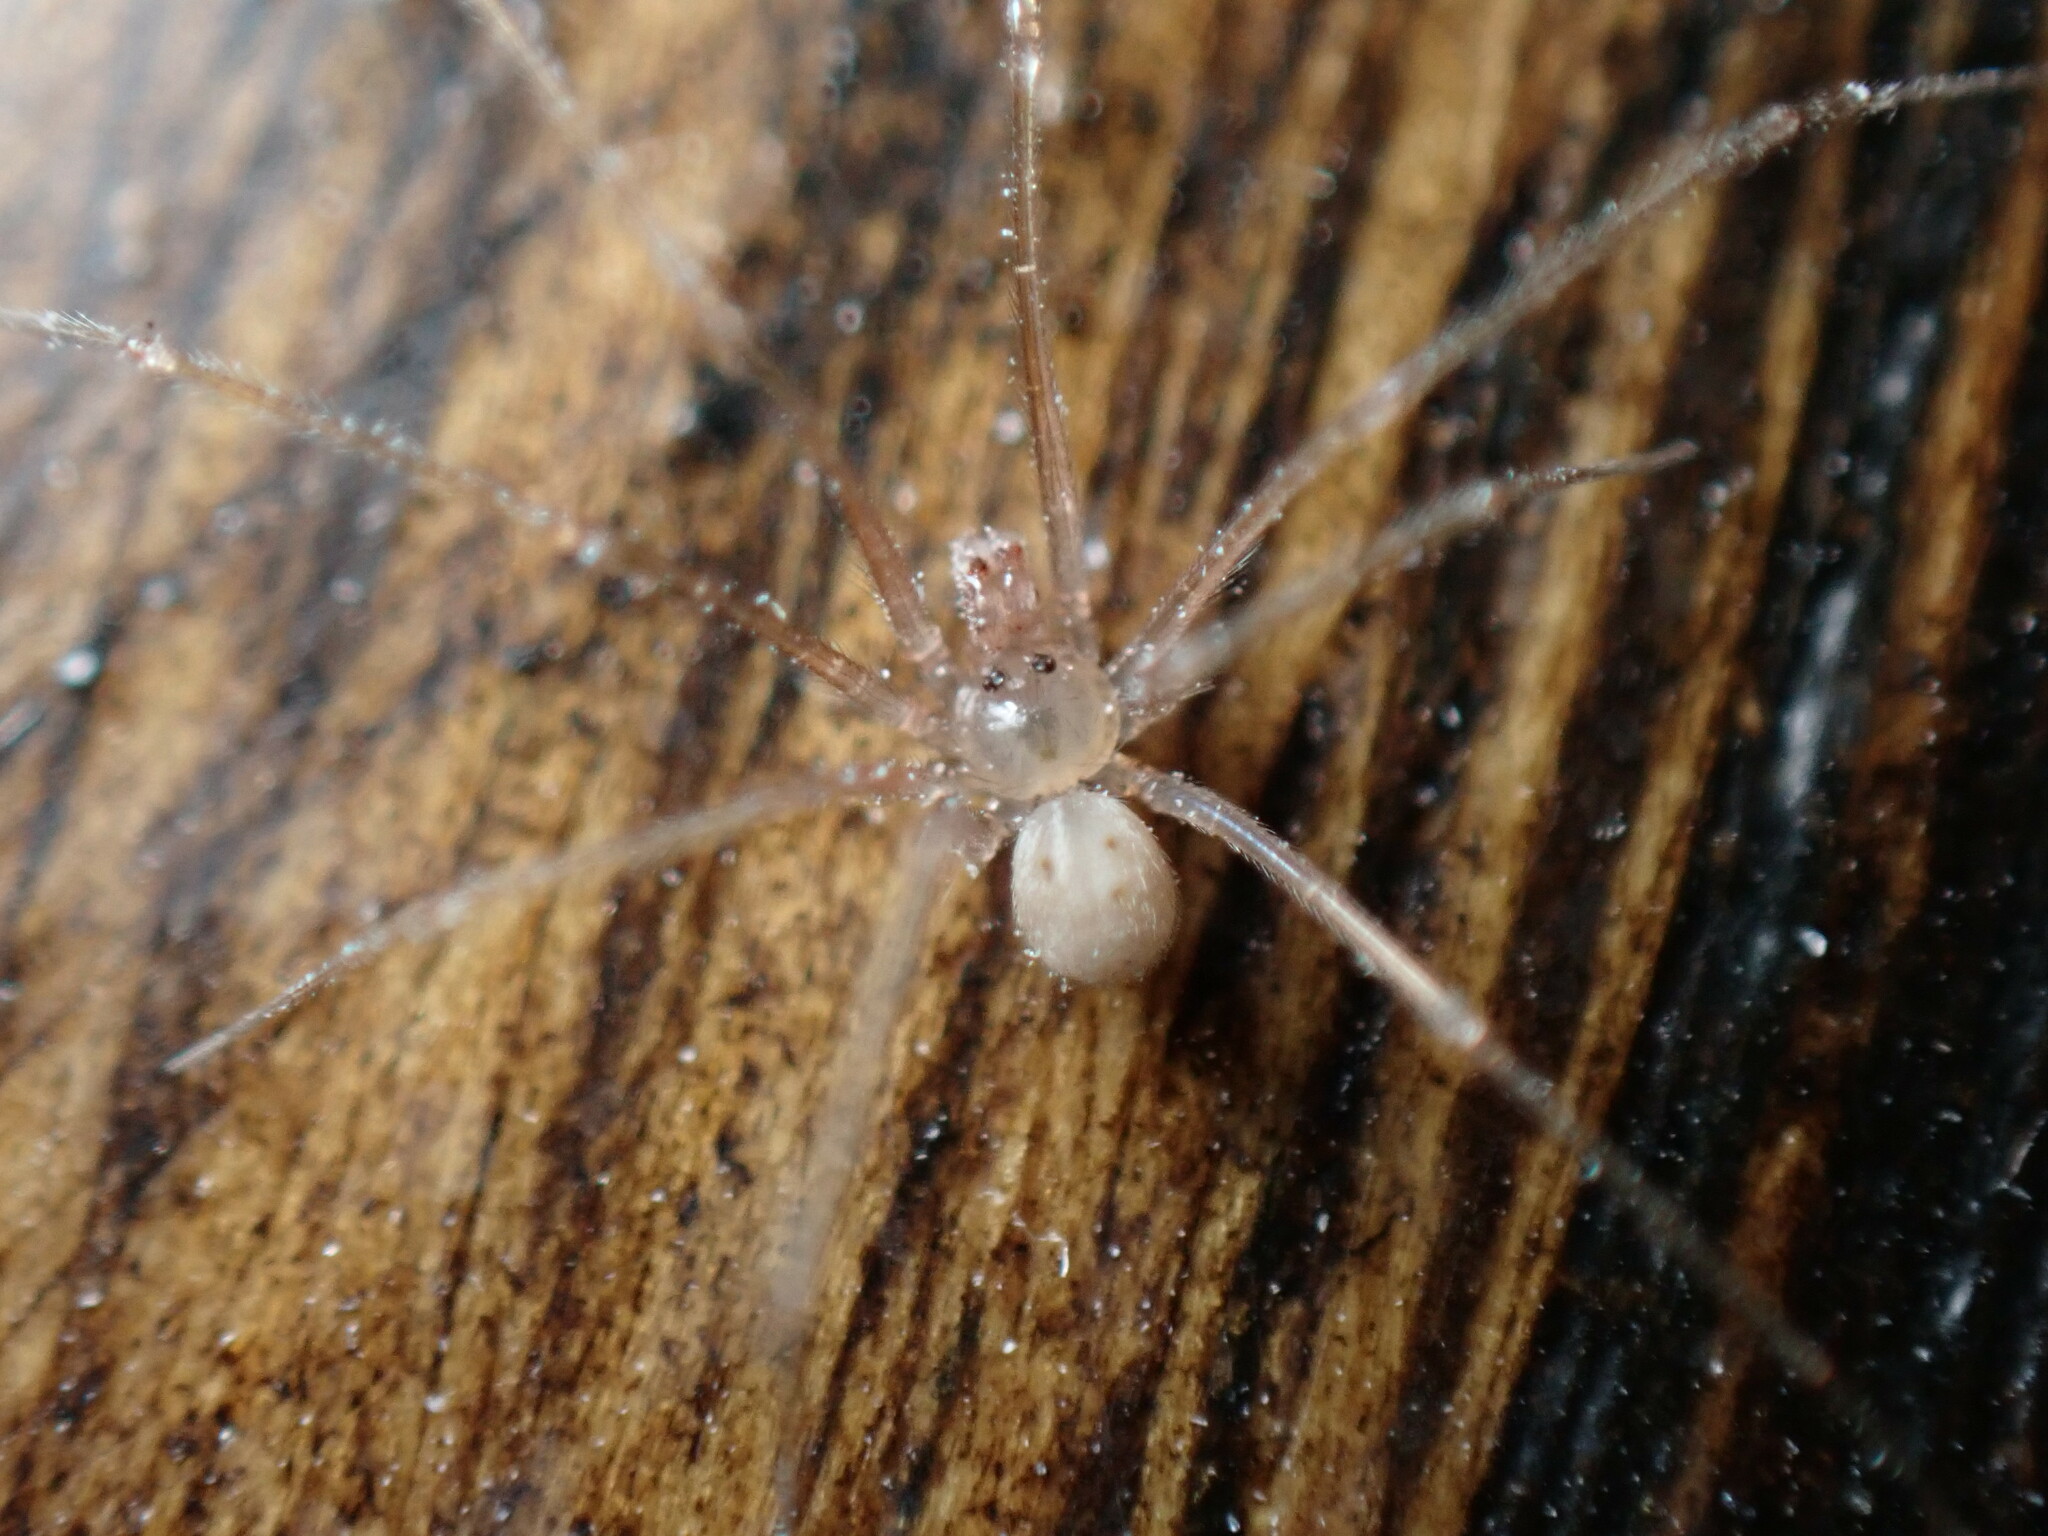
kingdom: Animalia
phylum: Arthropoda
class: Arachnida
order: Araneae
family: Pholcidae
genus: Spermophora
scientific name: Spermophora senoculata
